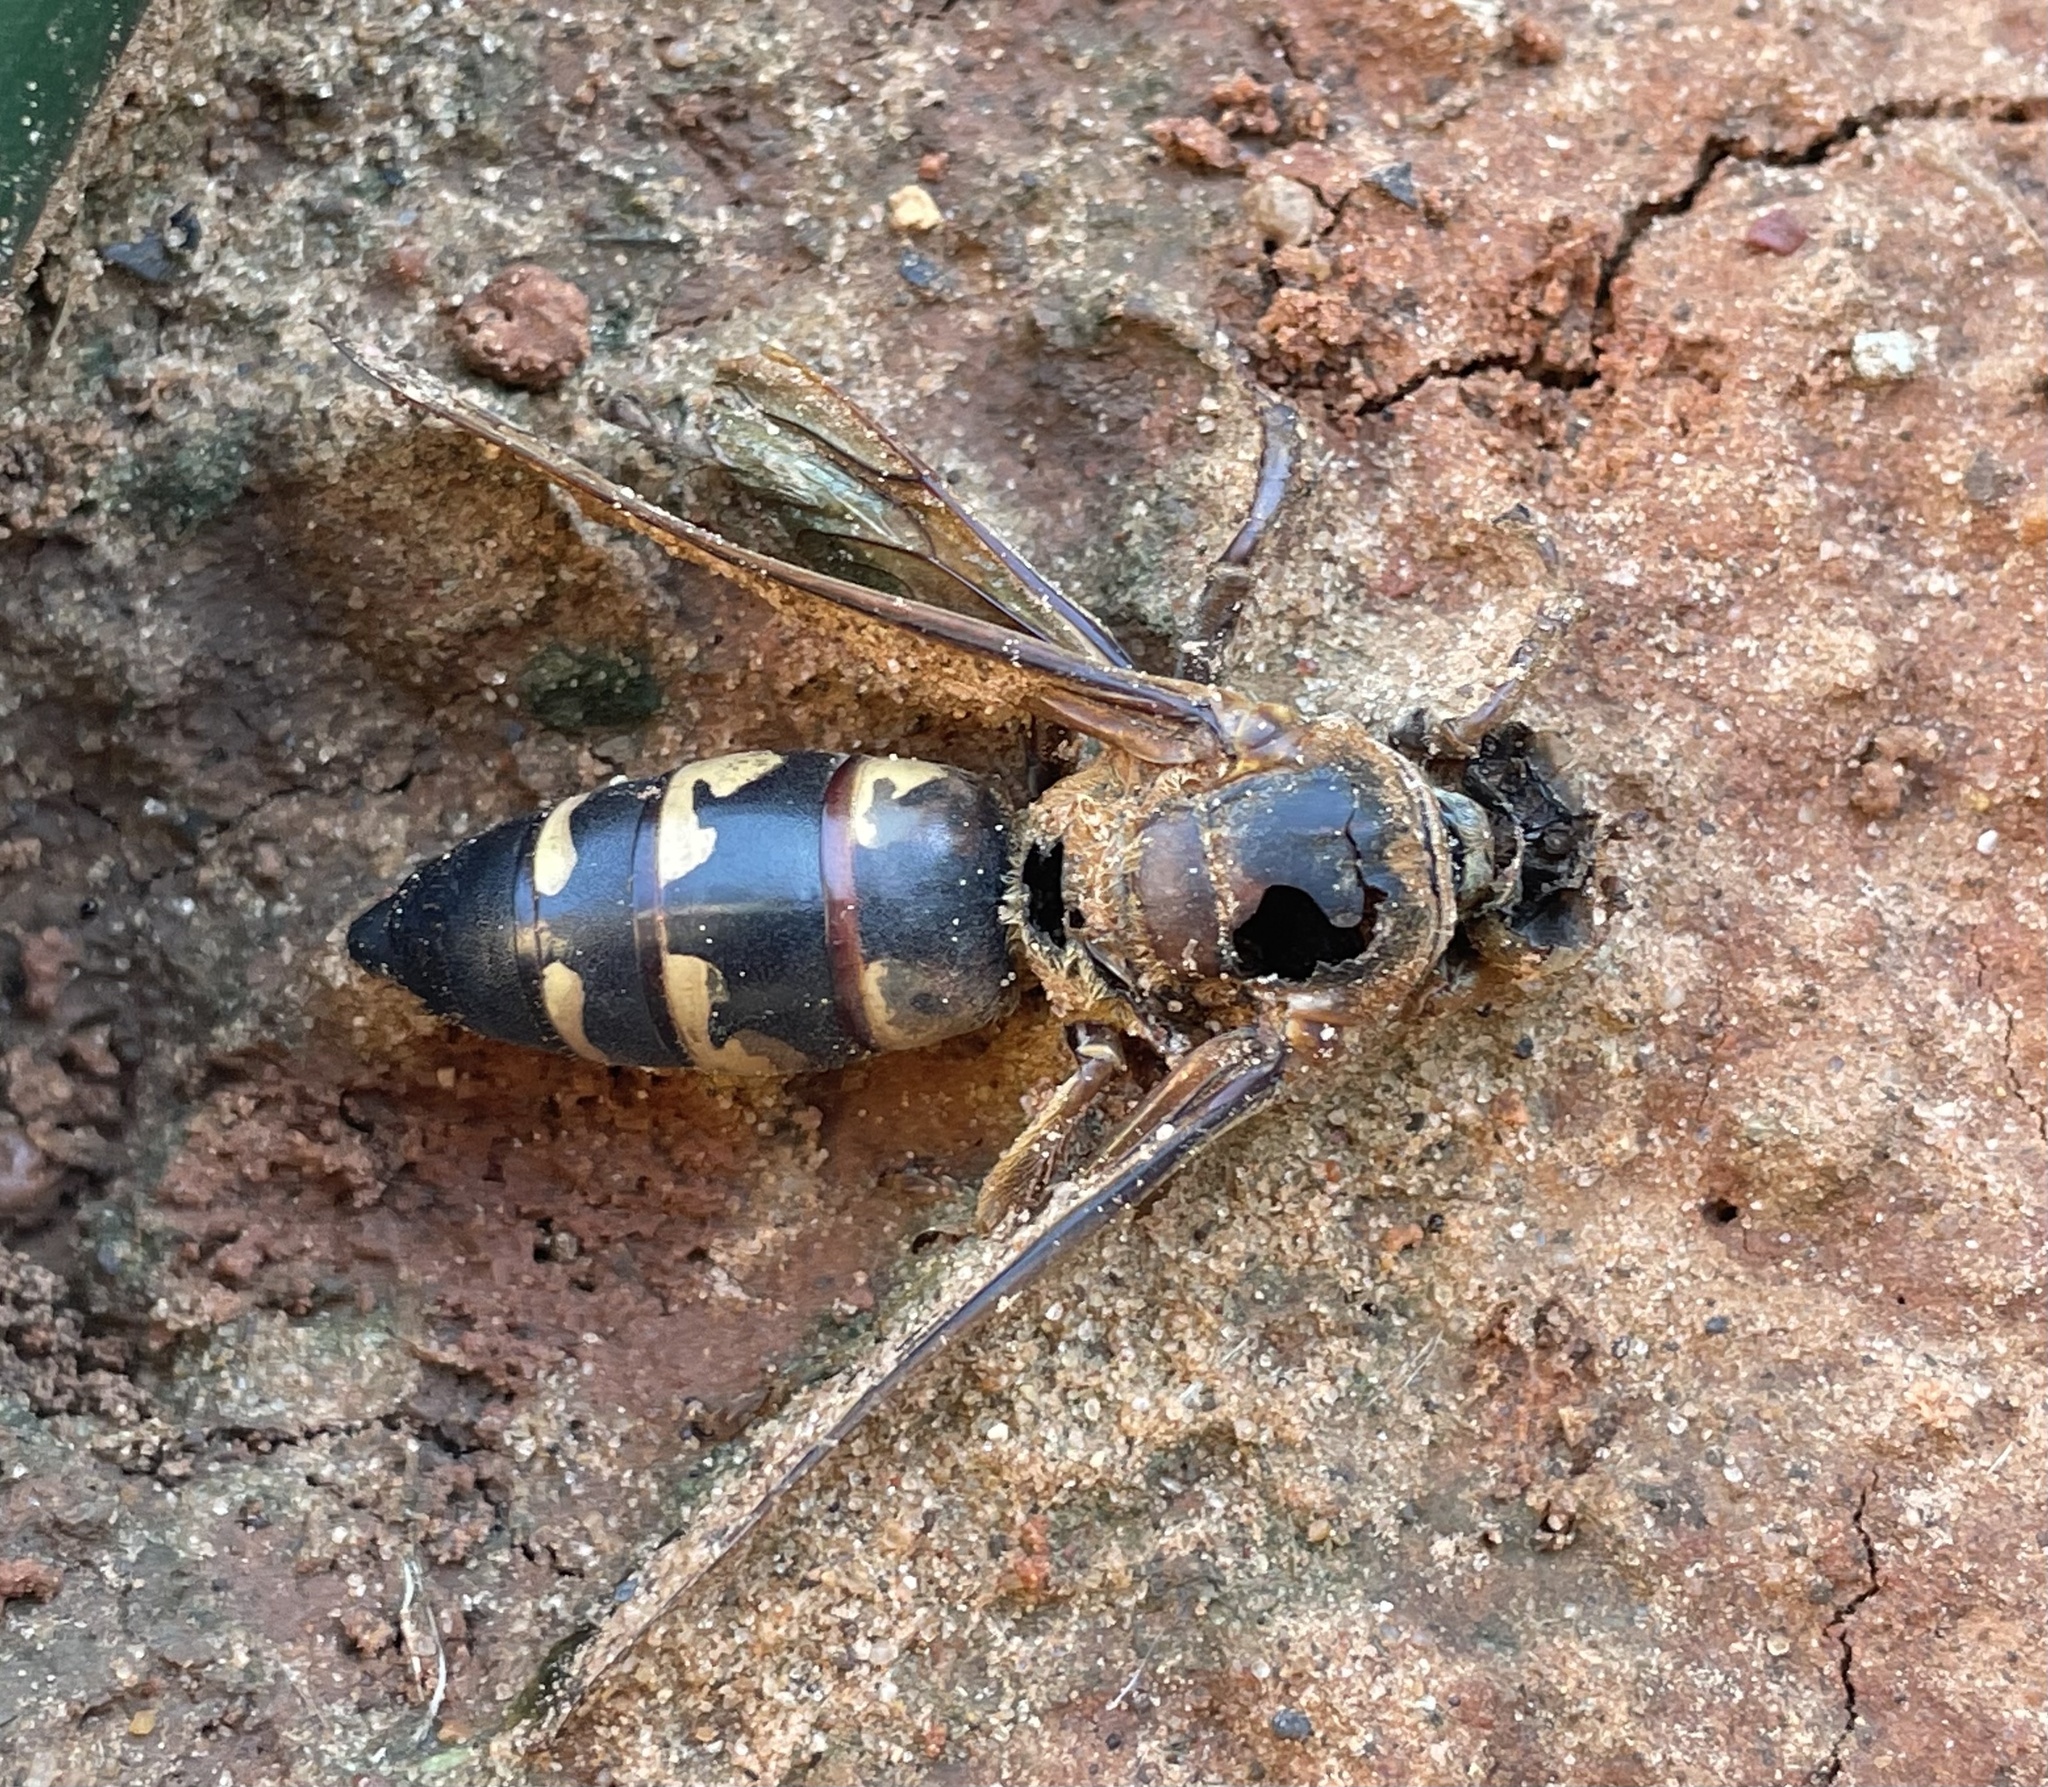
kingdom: Animalia
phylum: Arthropoda
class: Insecta
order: Hymenoptera
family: Crabronidae
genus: Sphecius
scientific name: Sphecius speciosus
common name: Cicada killer
